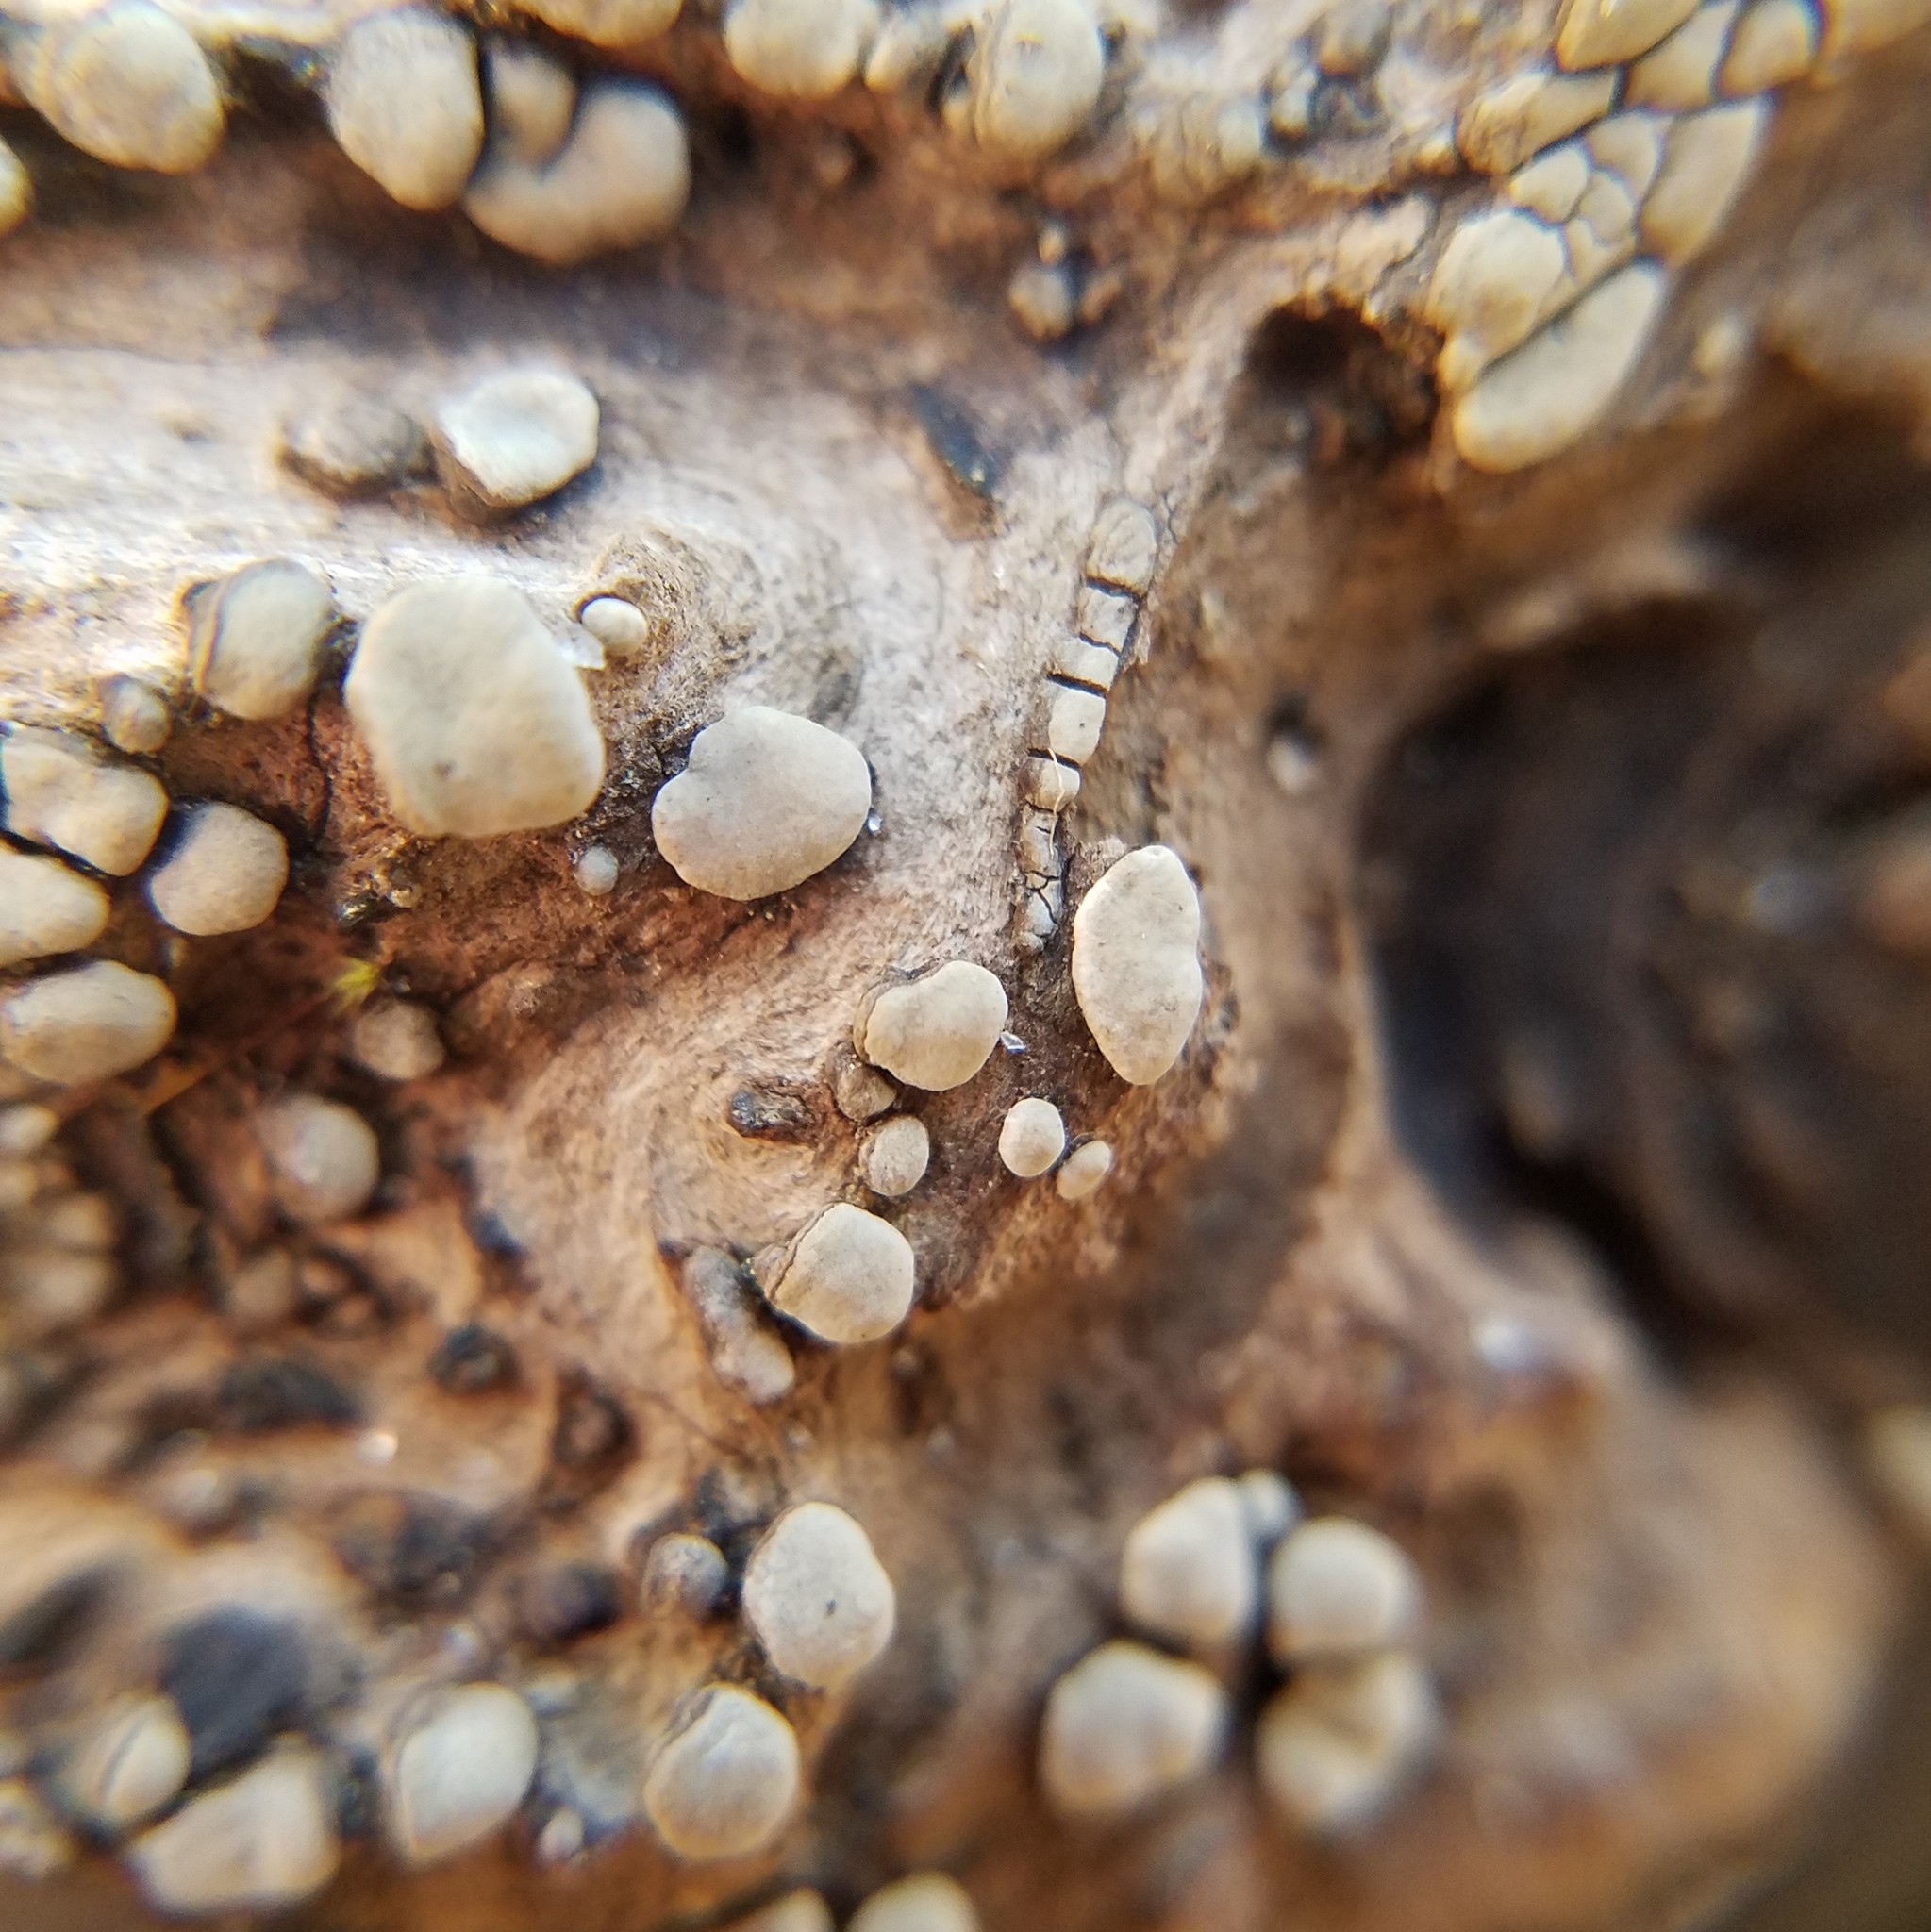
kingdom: Fungi
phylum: Basidiomycota
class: Agaricomycetes
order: Russulales
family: Stereaceae
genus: Xylobolus
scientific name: Xylobolus frustulatus
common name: Ceramic parchment
